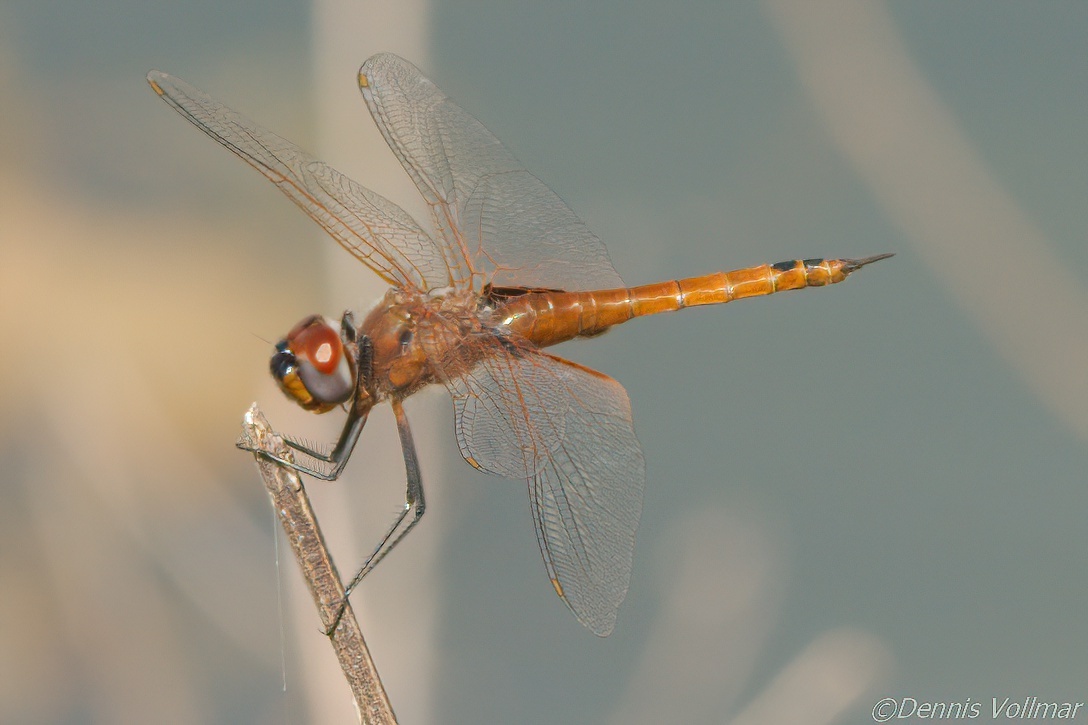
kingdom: Animalia
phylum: Arthropoda
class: Insecta
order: Odonata
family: Libellulidae
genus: Tramea
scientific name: Tramea insularis
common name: Antillean saddlebags
